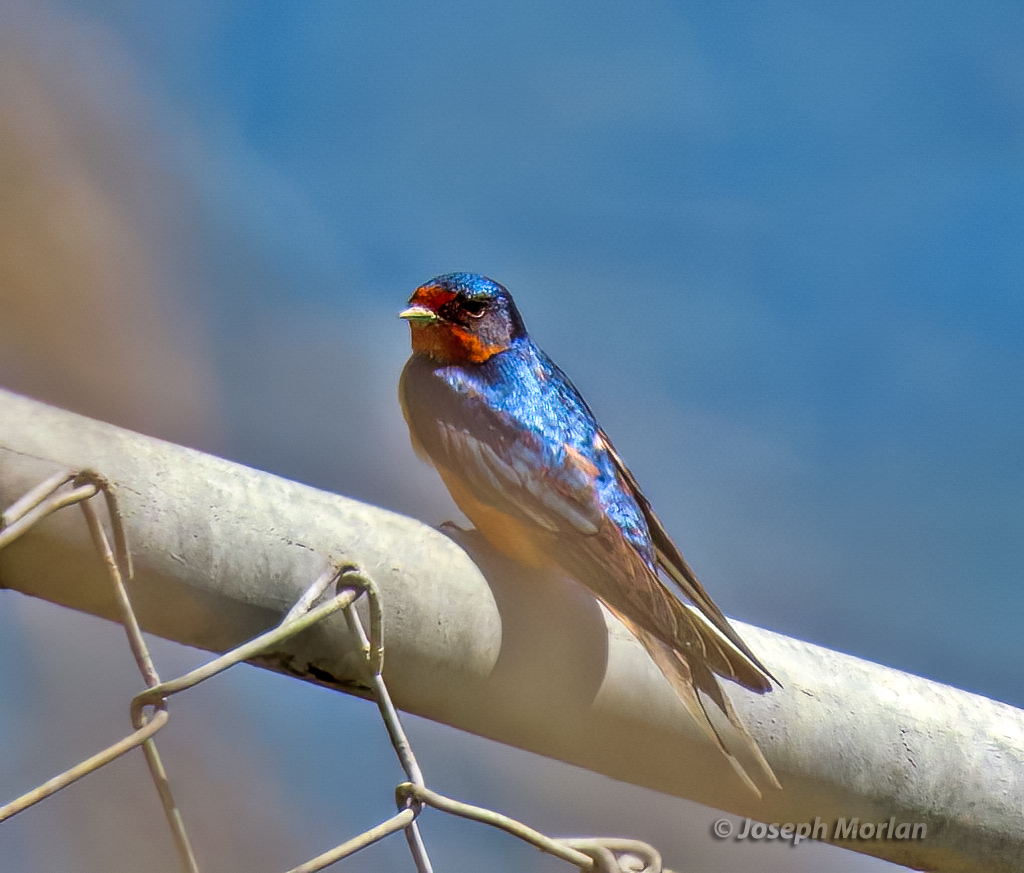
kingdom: Animalia
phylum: Chordata
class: Aves
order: Passeriformes
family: Hirundinidae
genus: Hirundo
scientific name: Hirundo rustica
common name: Barn swallow
